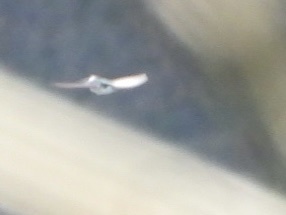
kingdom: Animalia
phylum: Chordata
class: Aves
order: Passeriformes
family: Hirundinidae
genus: Tachycineta
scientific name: Tachycineta thalassina
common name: Violet-green swallow
